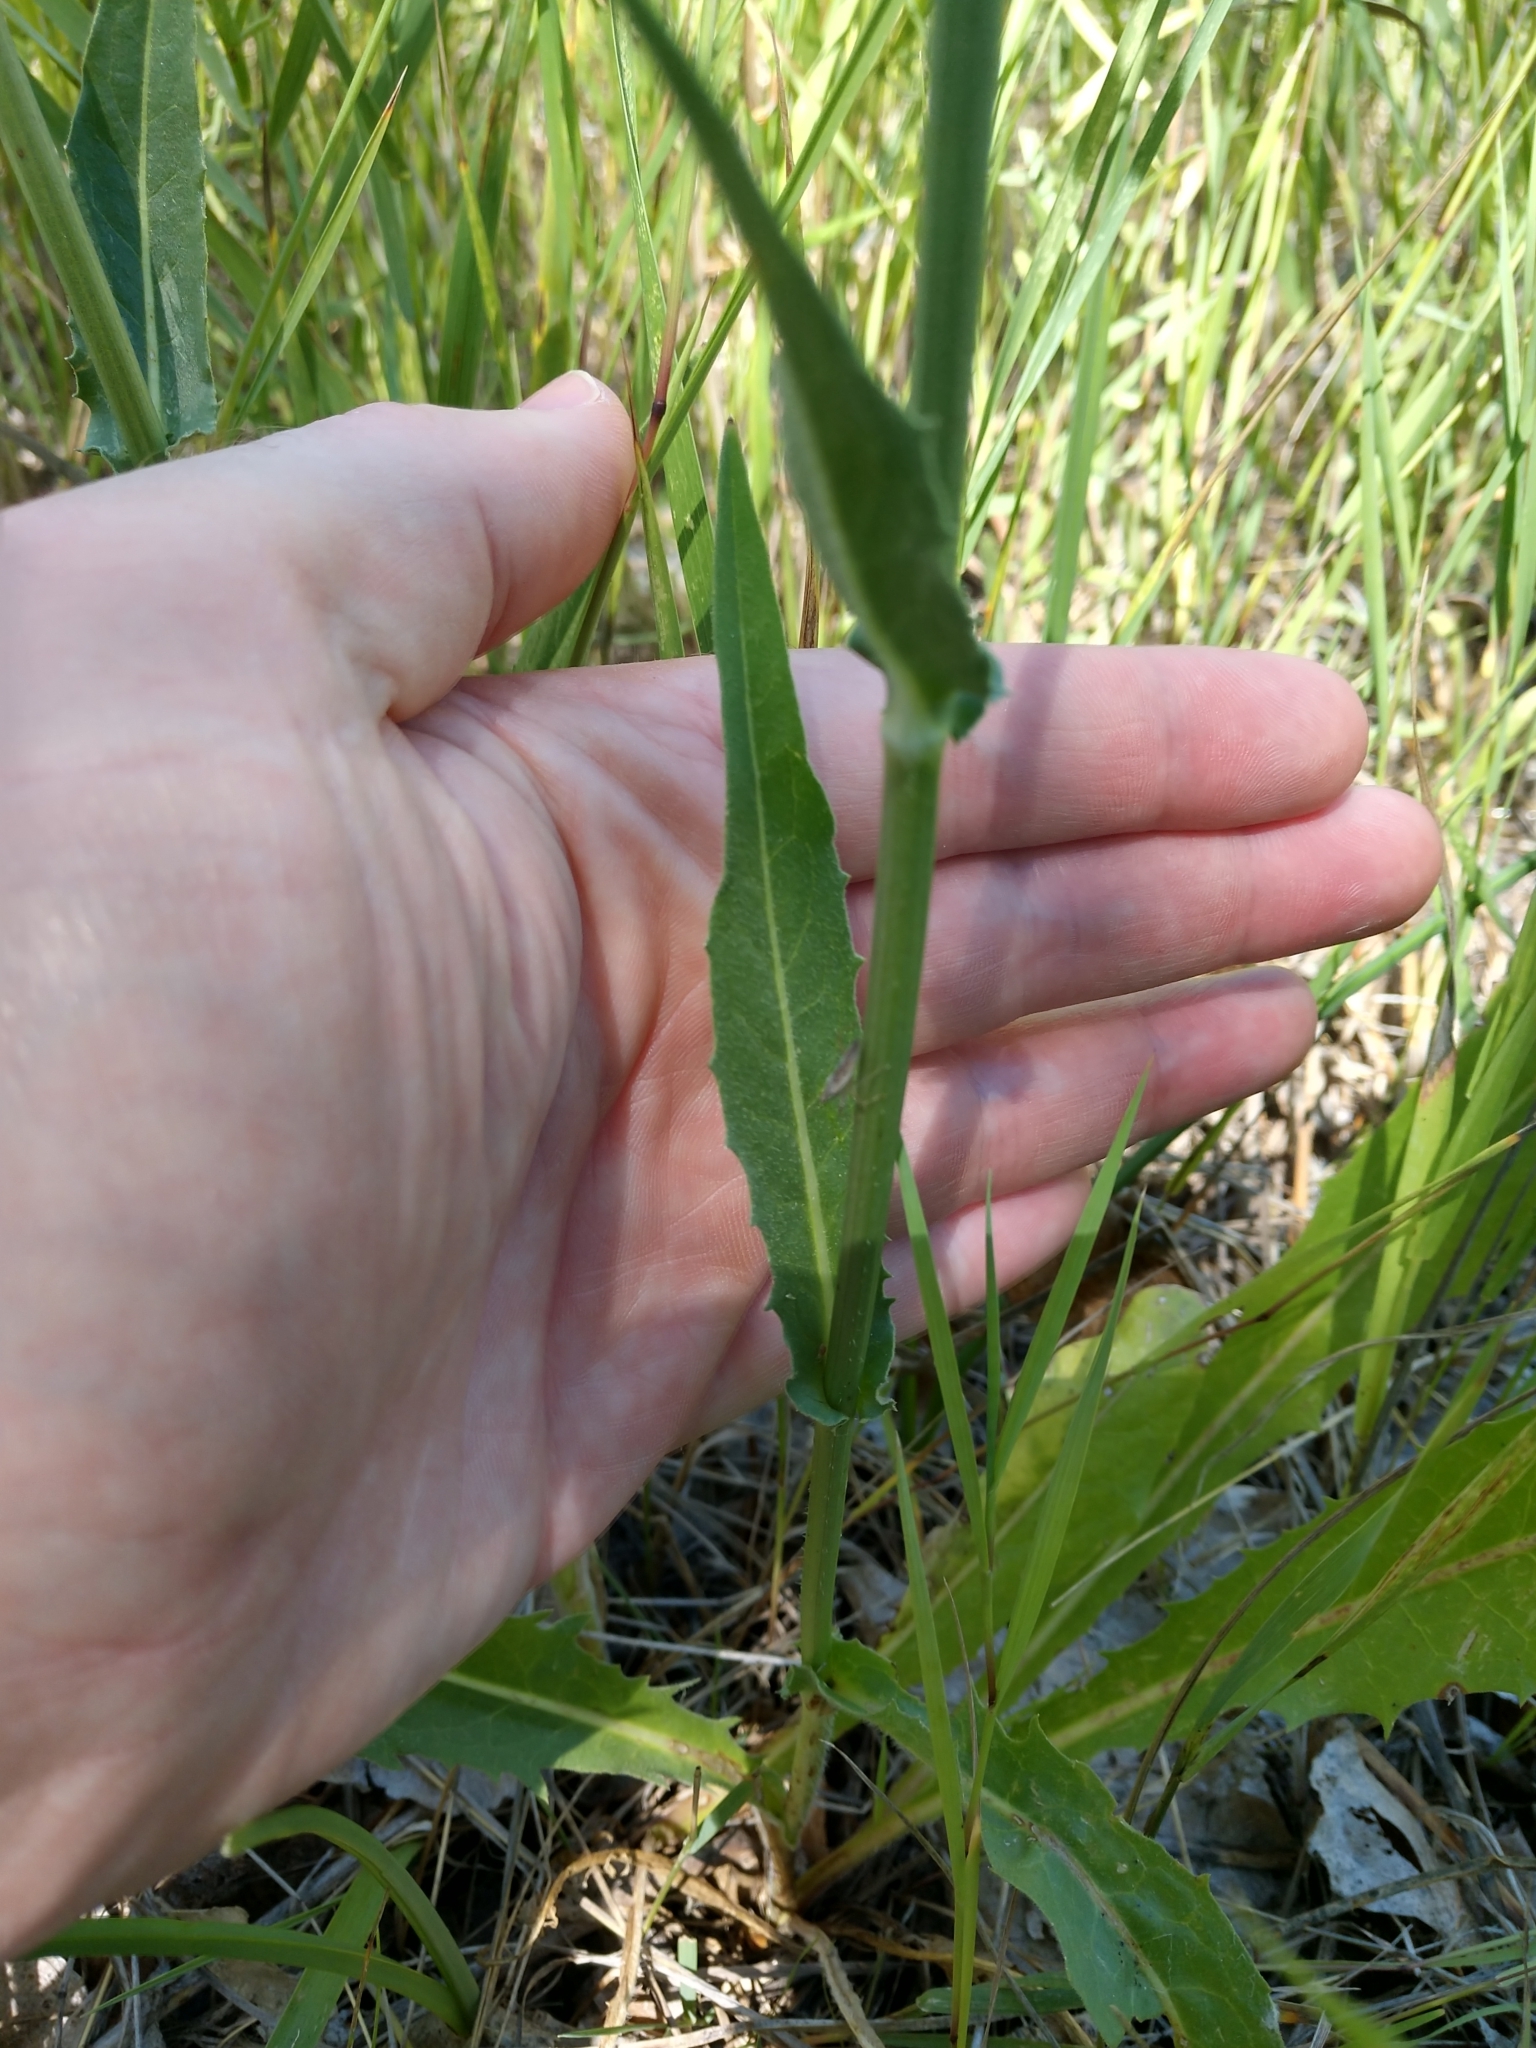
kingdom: Plantae
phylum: Tracheophyta
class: Magnoliopsida
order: Asterales
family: Asteraceae
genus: Cichorium
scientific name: Cichorium intybus
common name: Chicory
